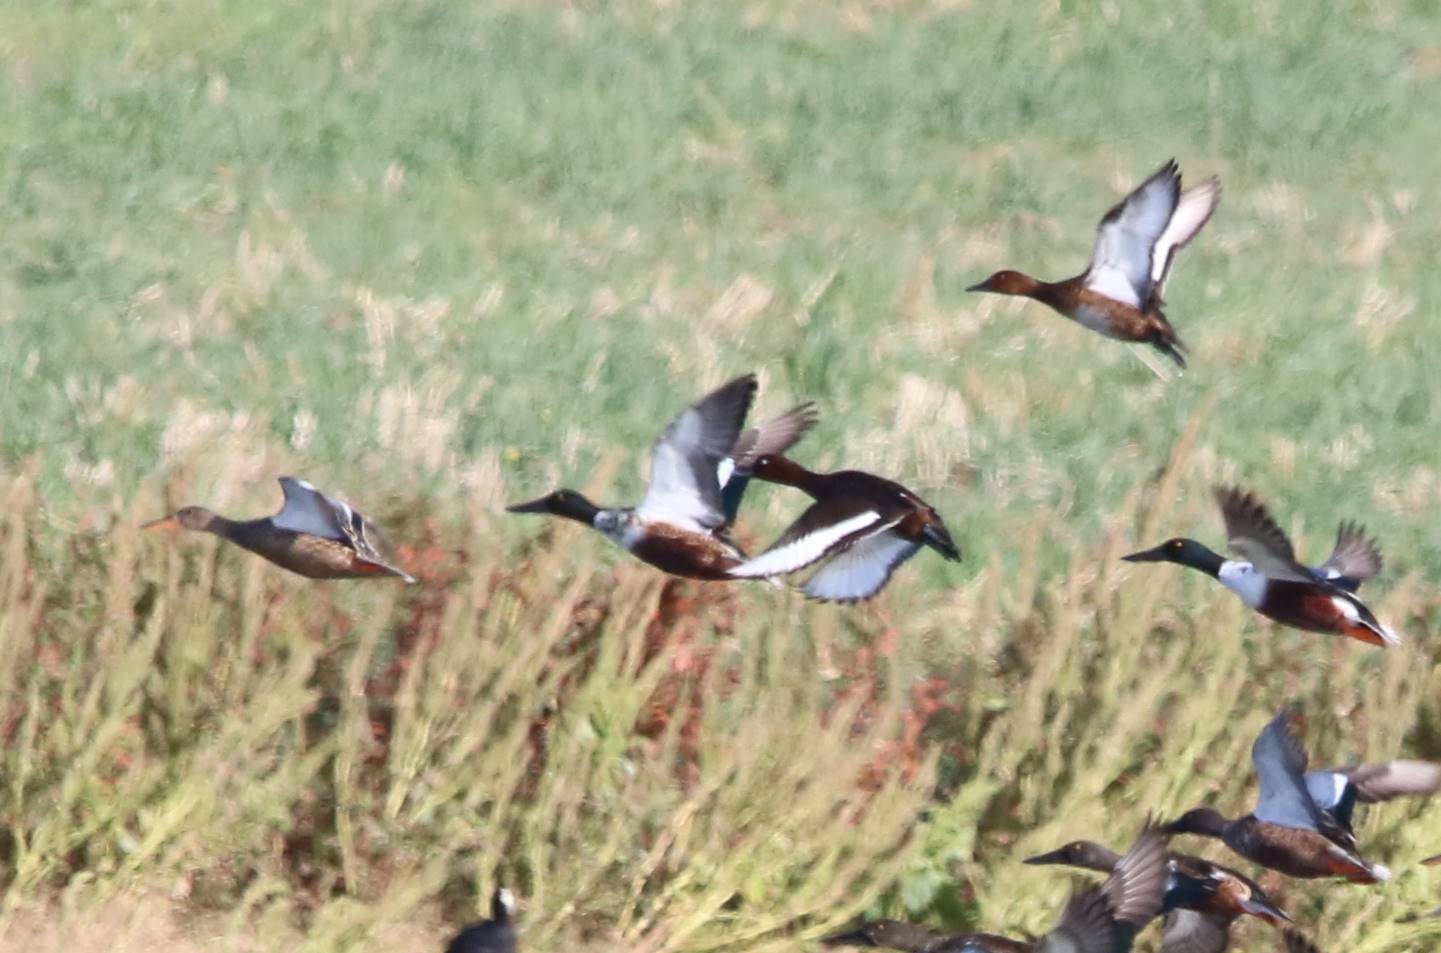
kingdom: Animalia
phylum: Chordata
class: Aves
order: Anseriformes
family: Anatidae
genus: Spatula
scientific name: Spatula clypeata
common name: Northern shoveler
